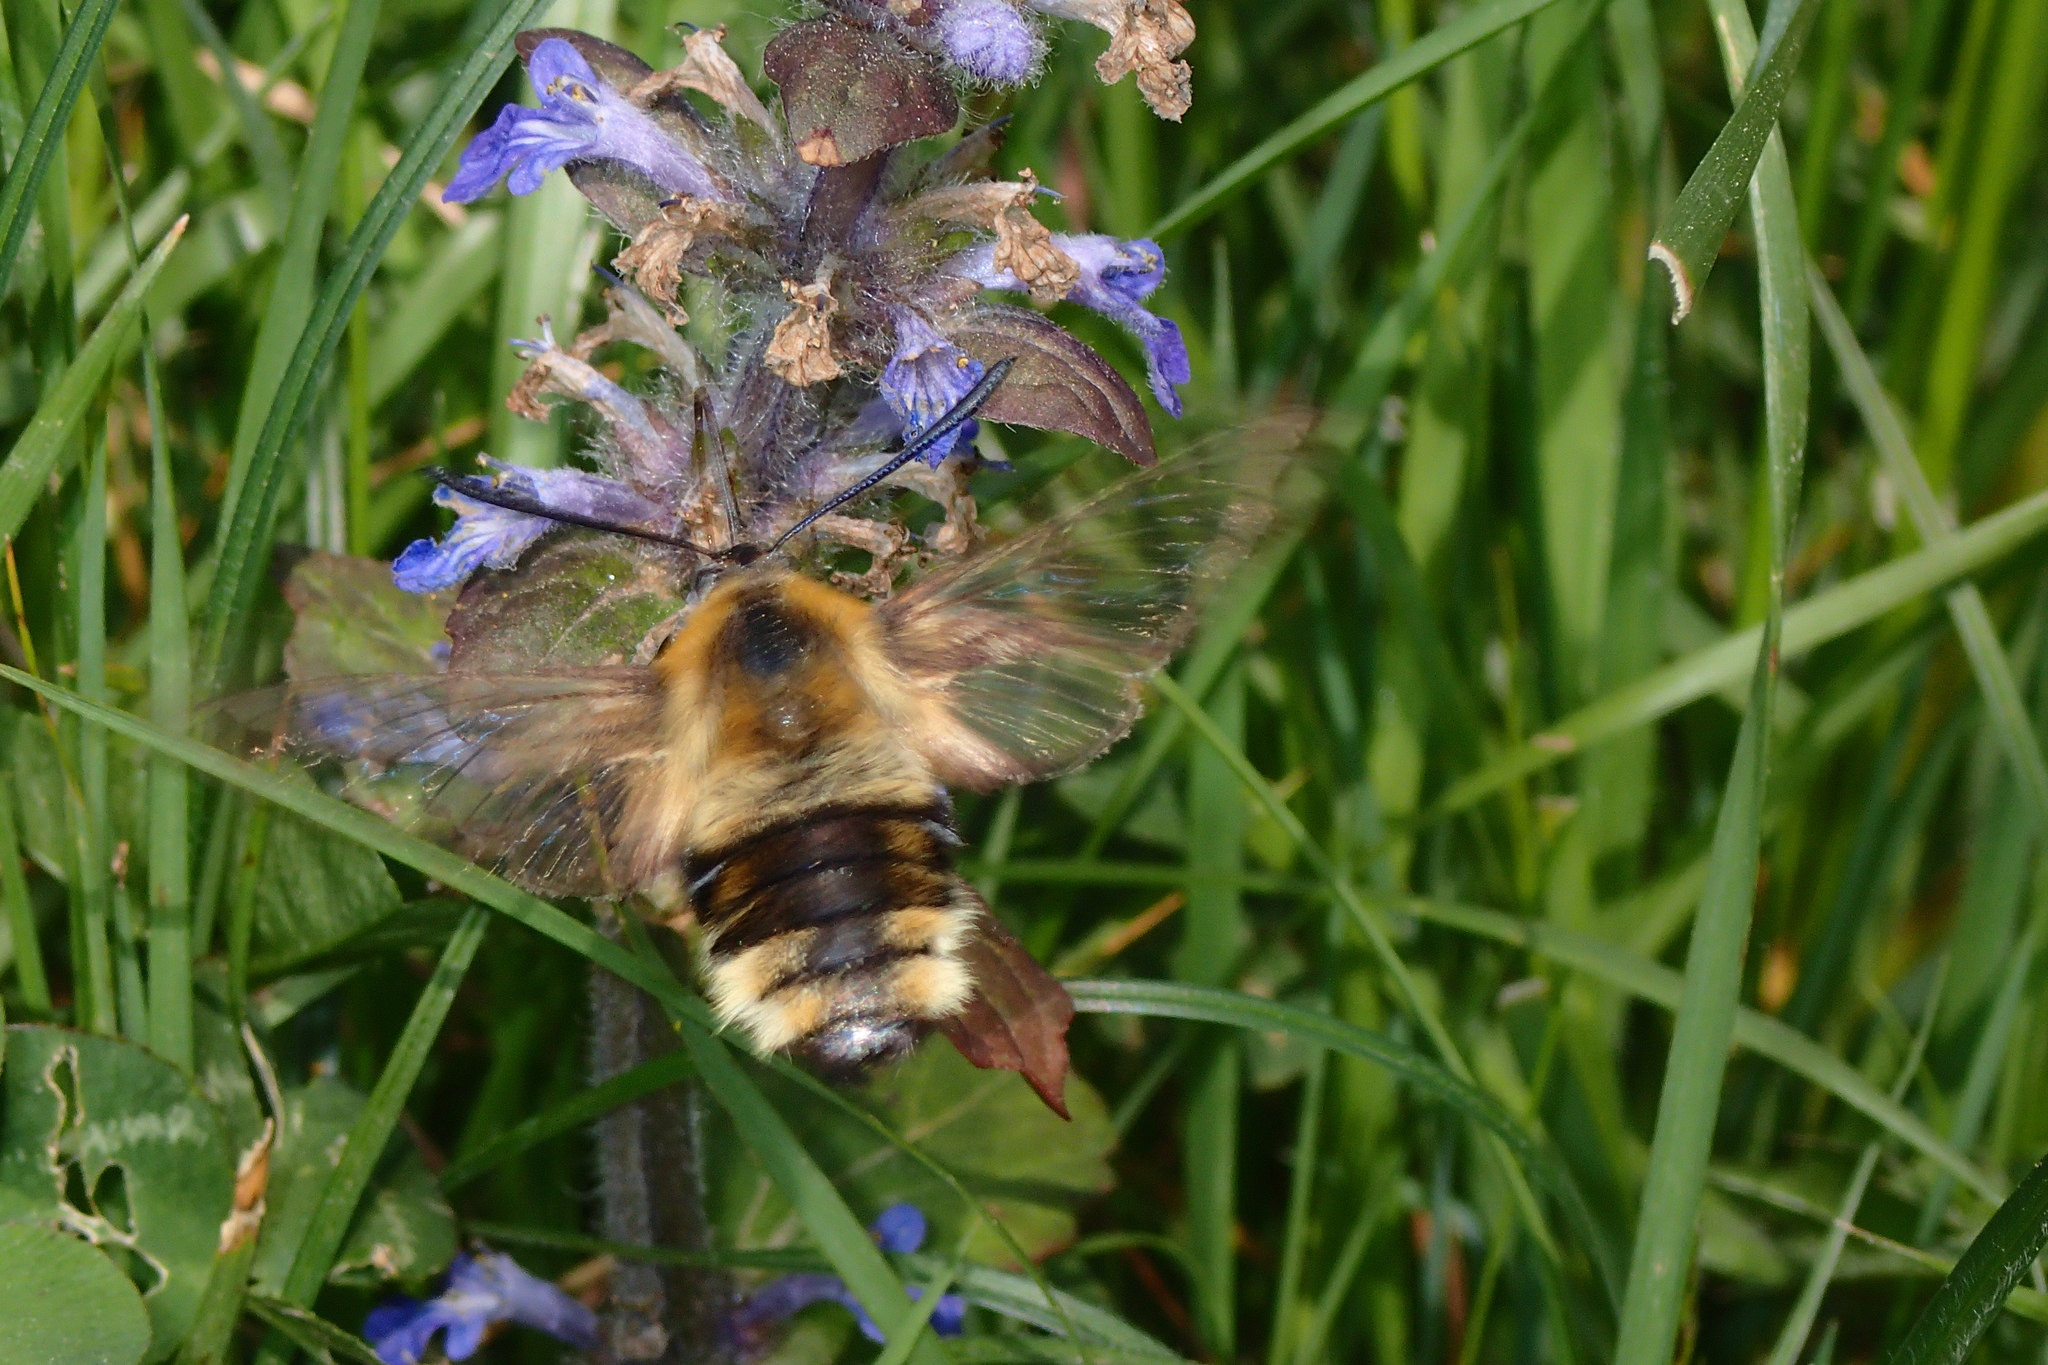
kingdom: Animalia
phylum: Arthropoda
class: Insecta
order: Lepidoptera
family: Sphingidae
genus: Hemaris
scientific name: Hemaris tityus
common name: Narrow-bordered bee hawk-moth
